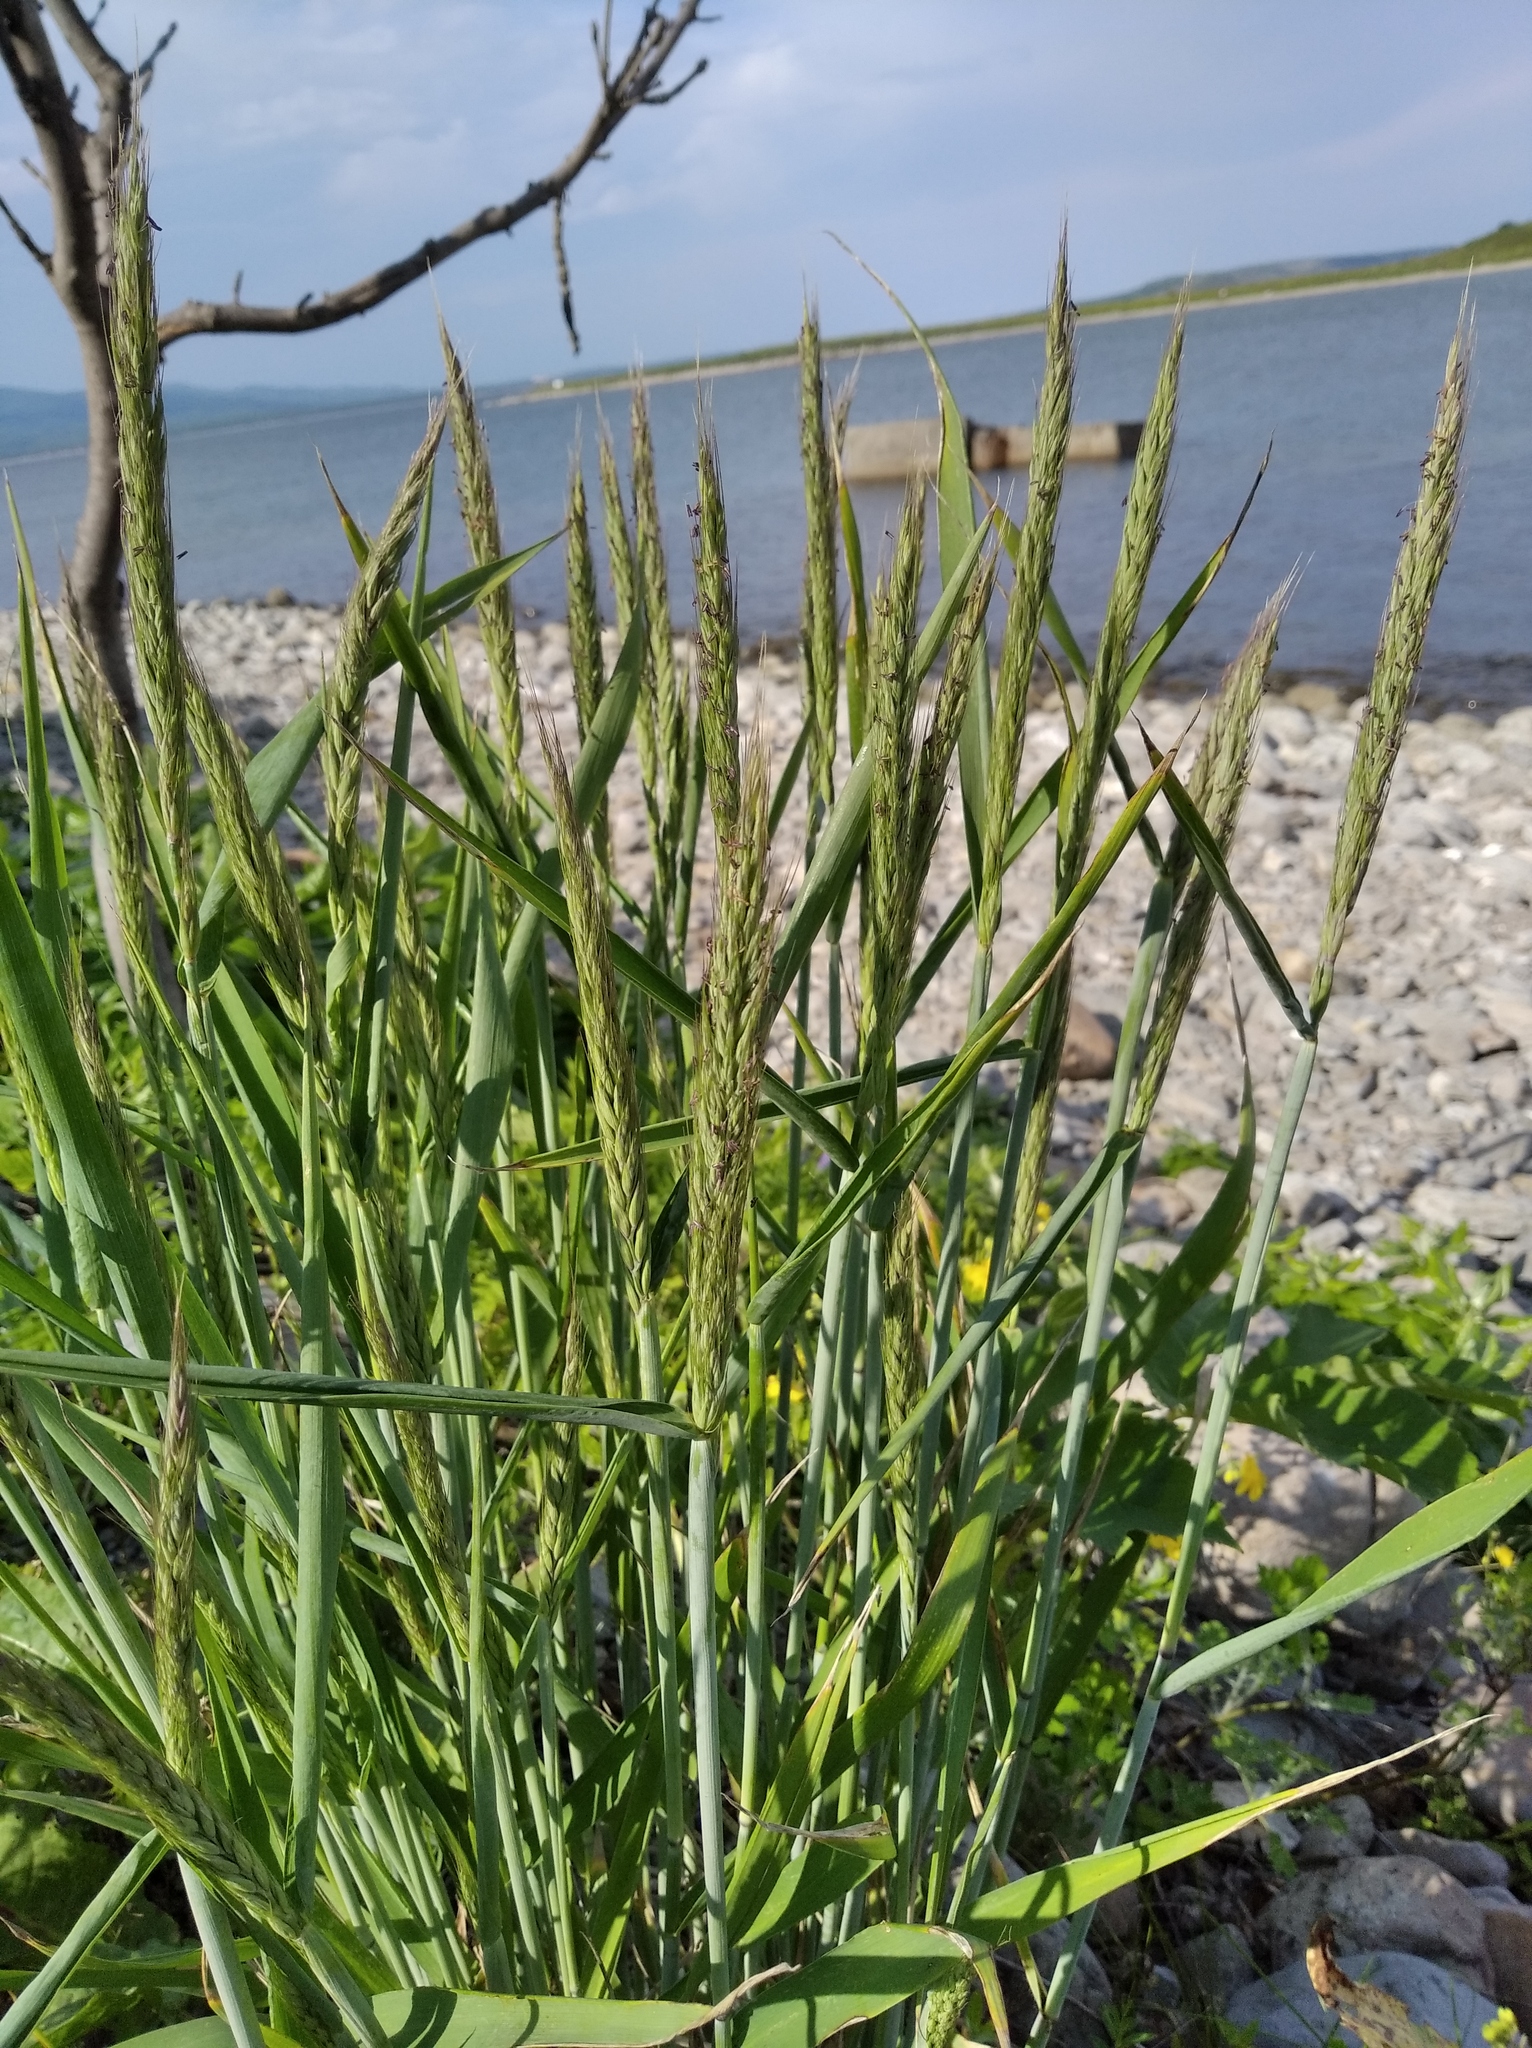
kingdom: Plantae
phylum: Tracheophyta
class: Liliopsida
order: Poales
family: Poaceae
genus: Elymus
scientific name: Elymus dahuricus
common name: Dahurian wild rye
